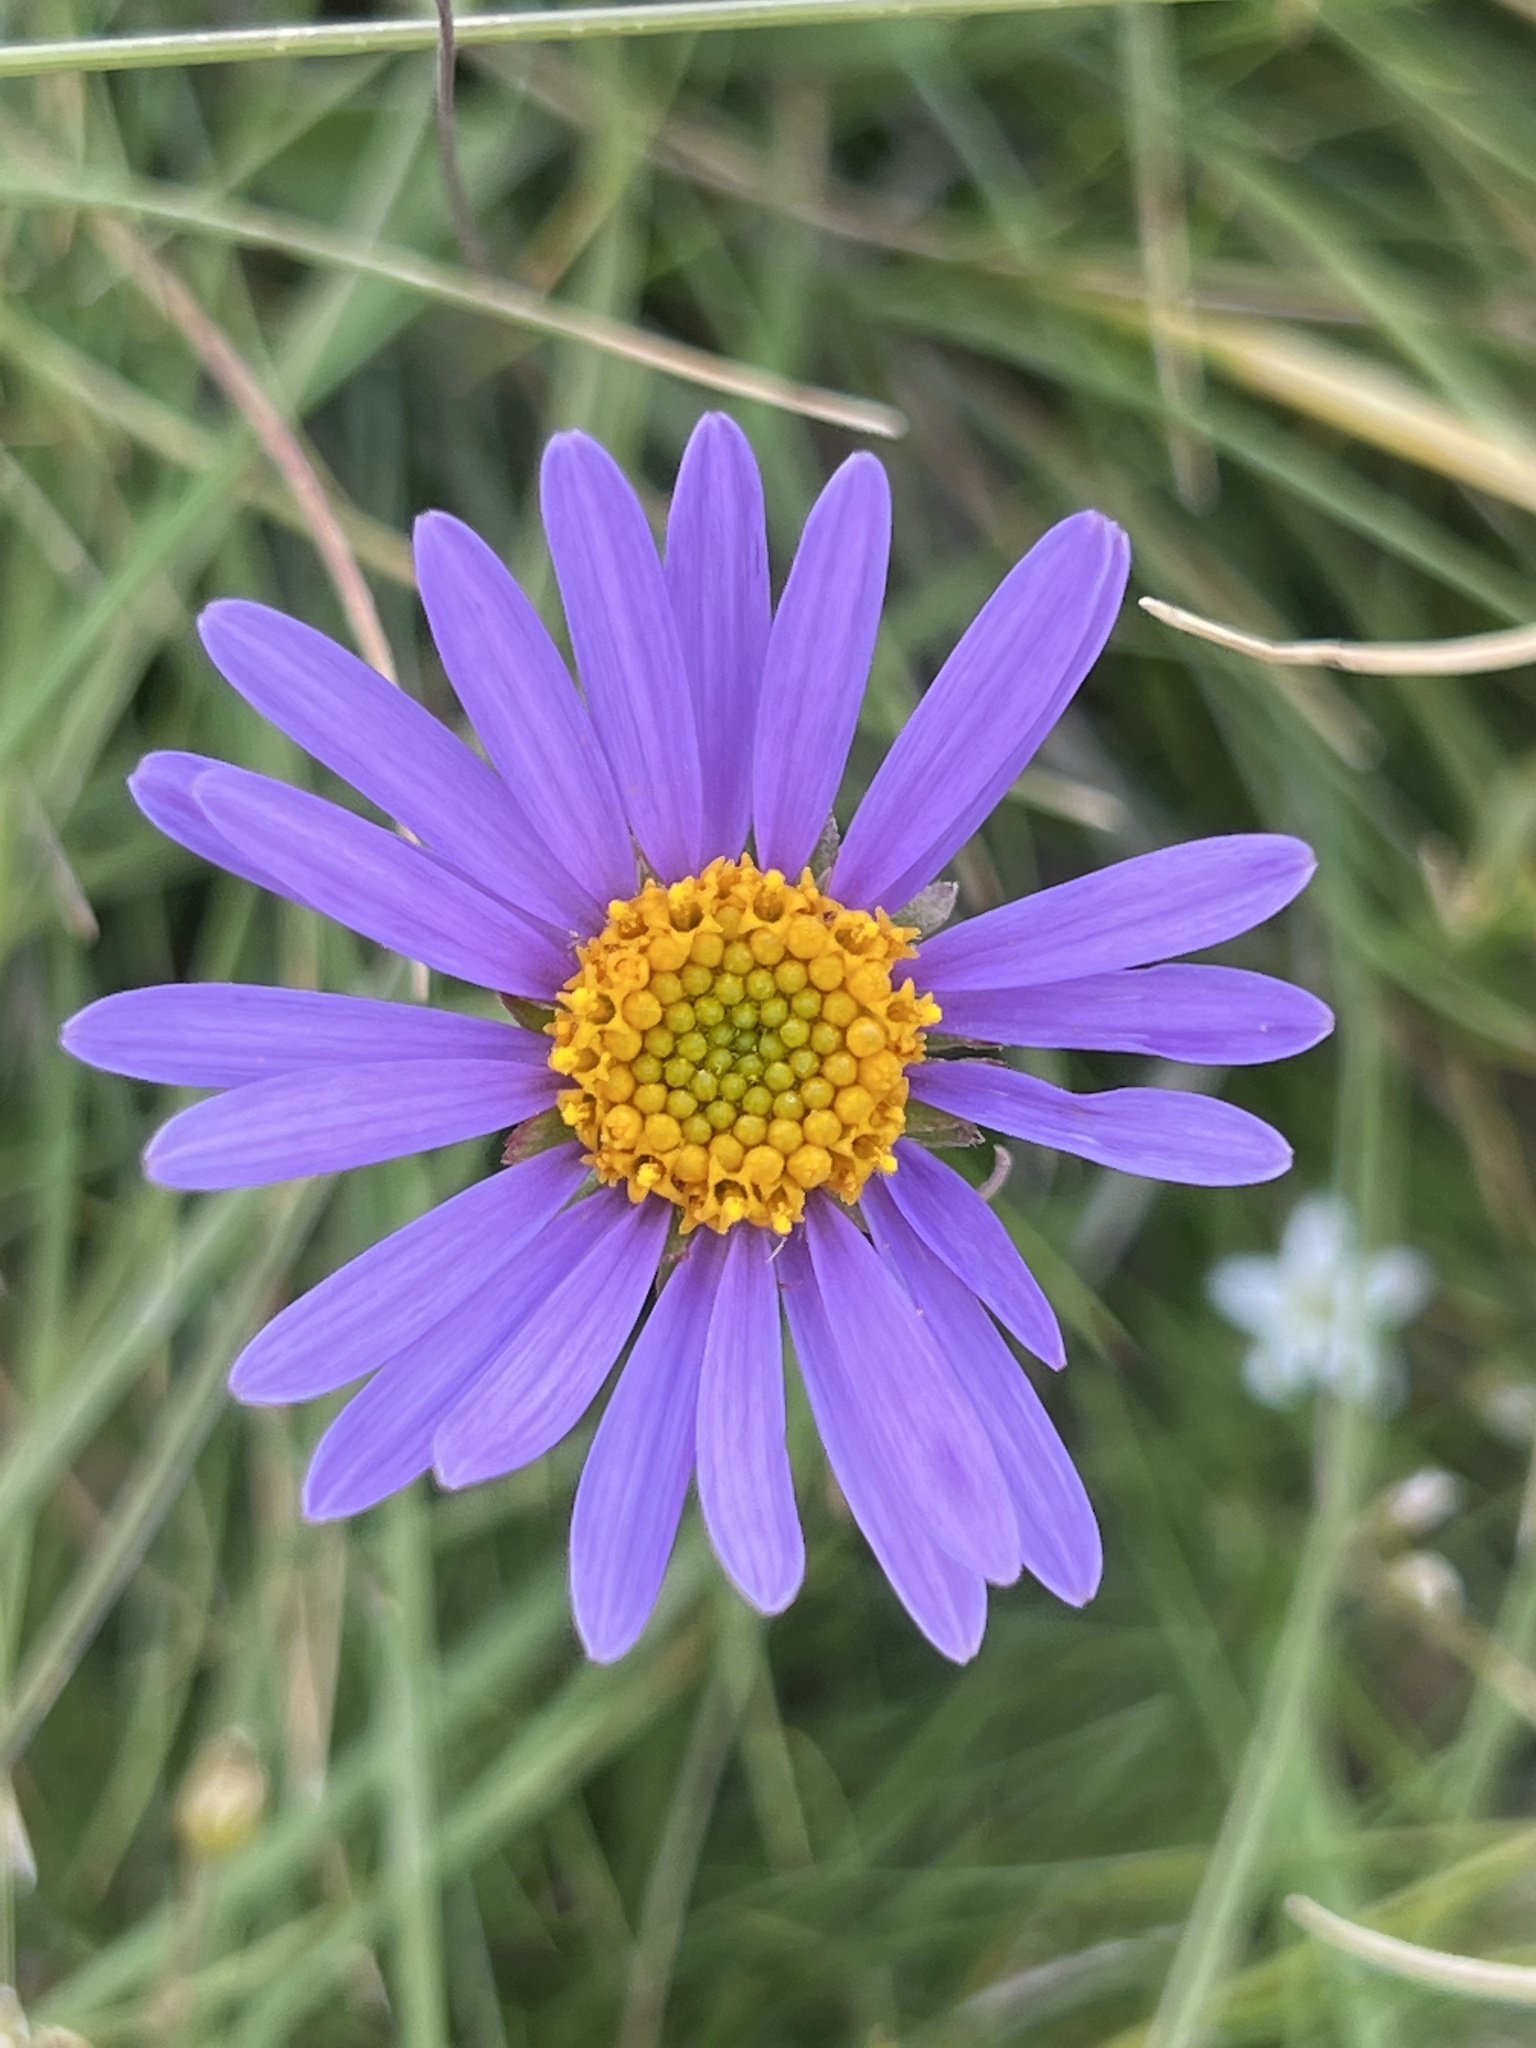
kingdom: Plantae
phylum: Tracheophyta
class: Magnoliopsida
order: Asterales
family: Asteraceae
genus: Aster
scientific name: Aster alpinus
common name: Alpine aster
